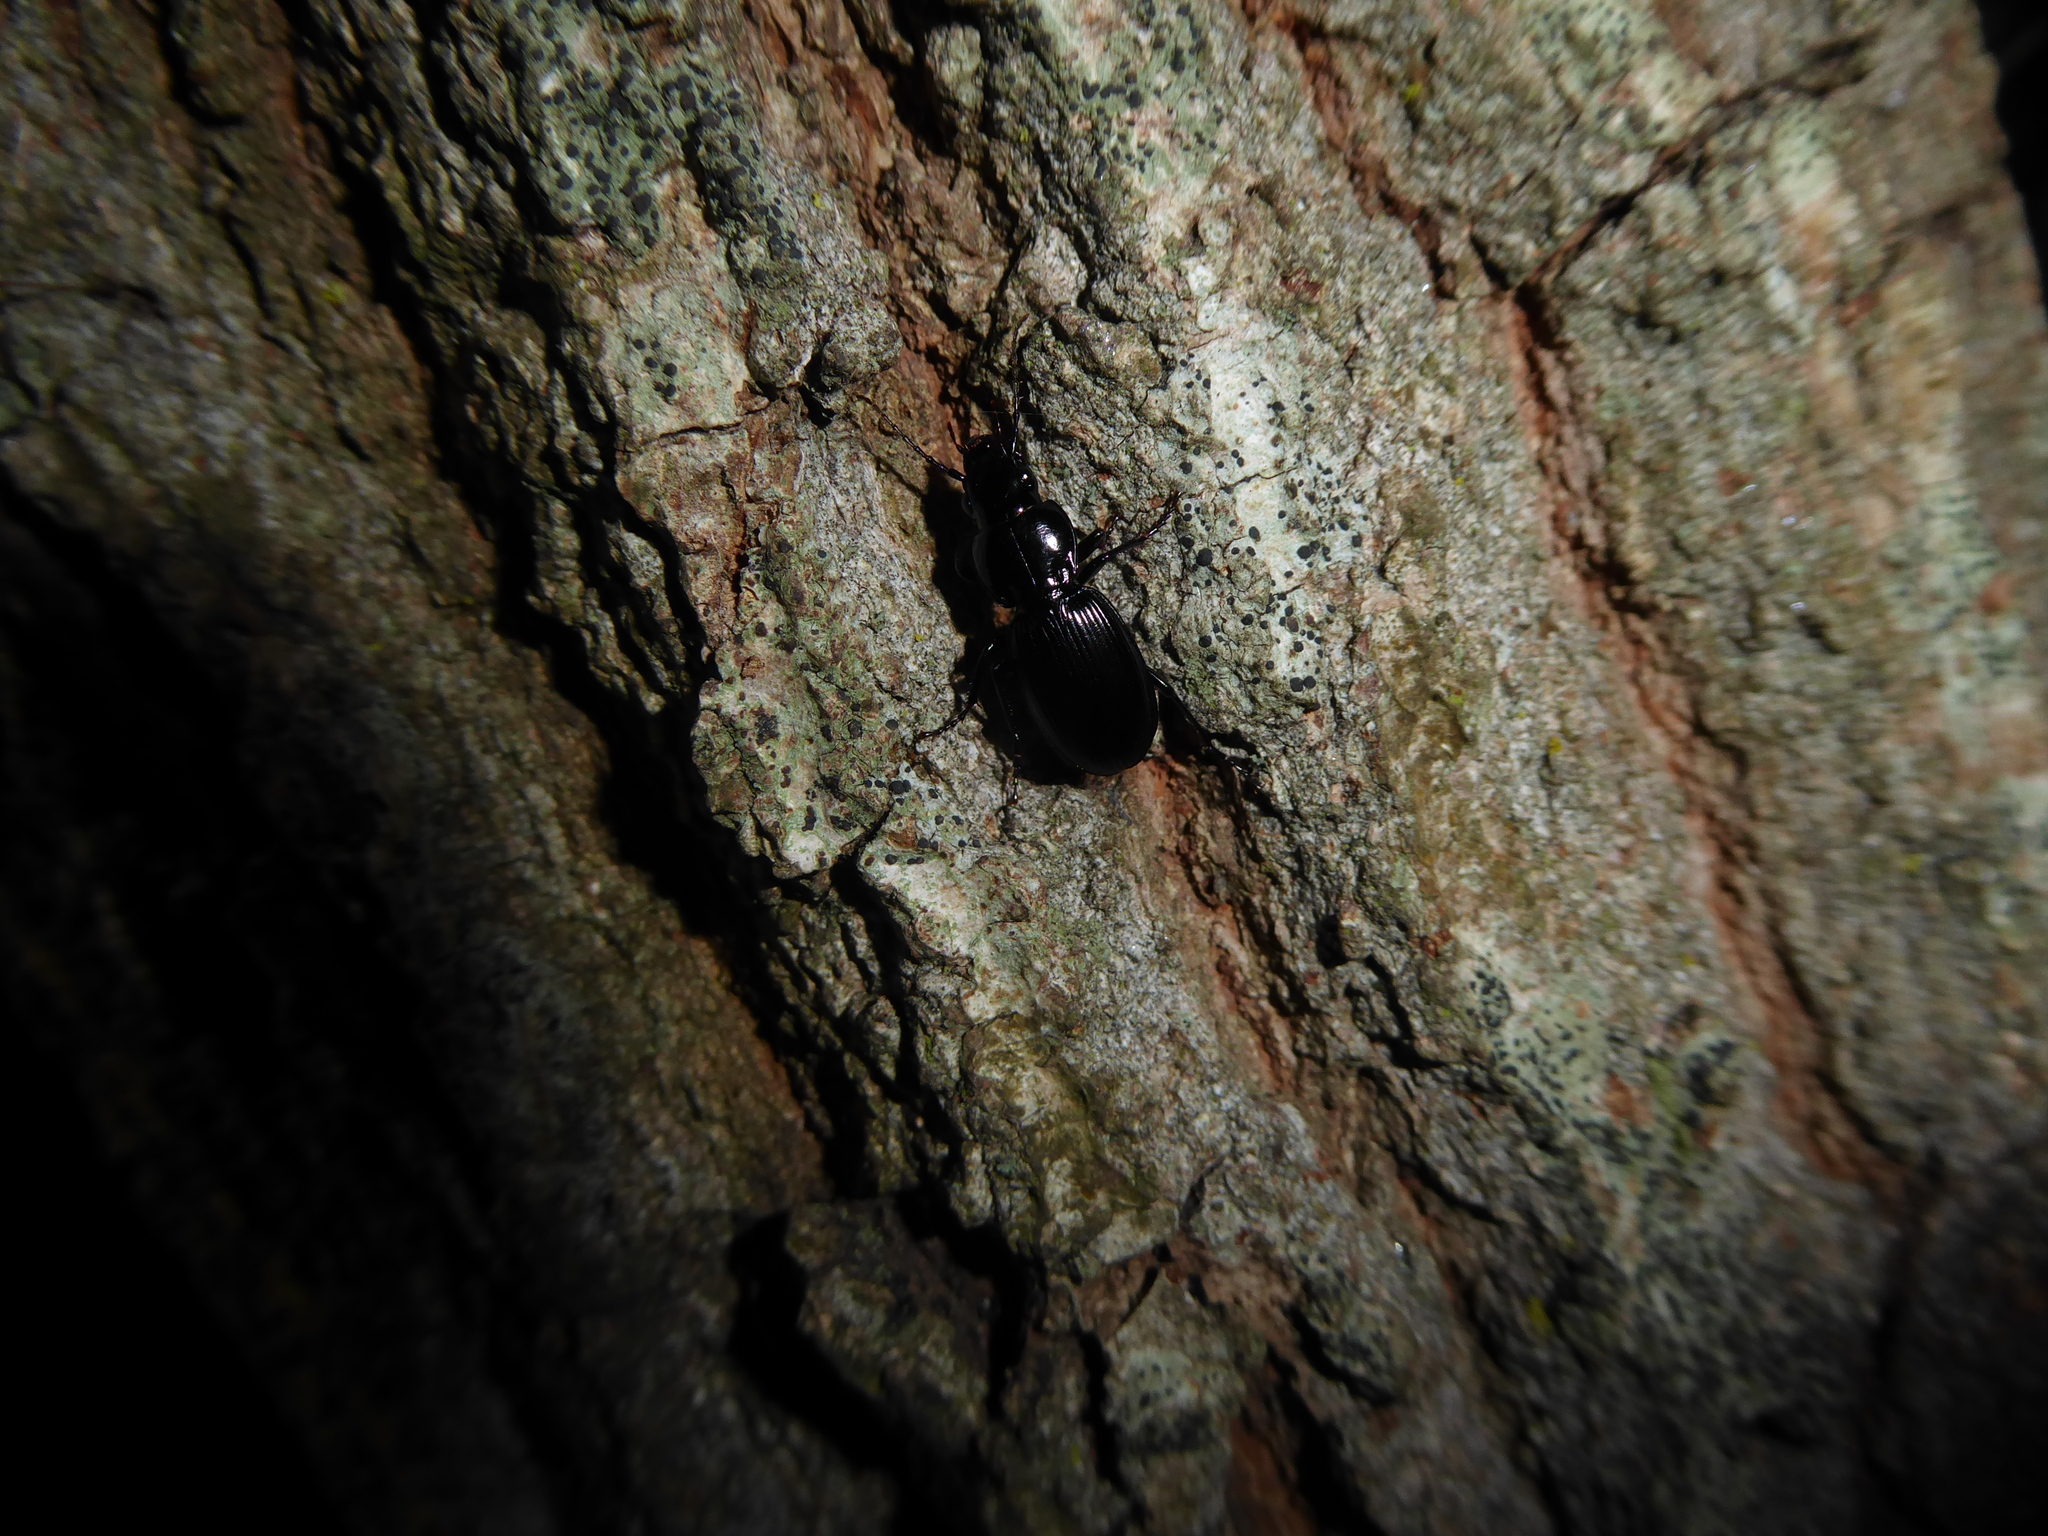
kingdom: Animalia
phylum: Arthropoda
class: Insecta
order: Coleoptera
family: Carabidae
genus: Pterostichus
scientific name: Pterostichus madidus
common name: Black clock
